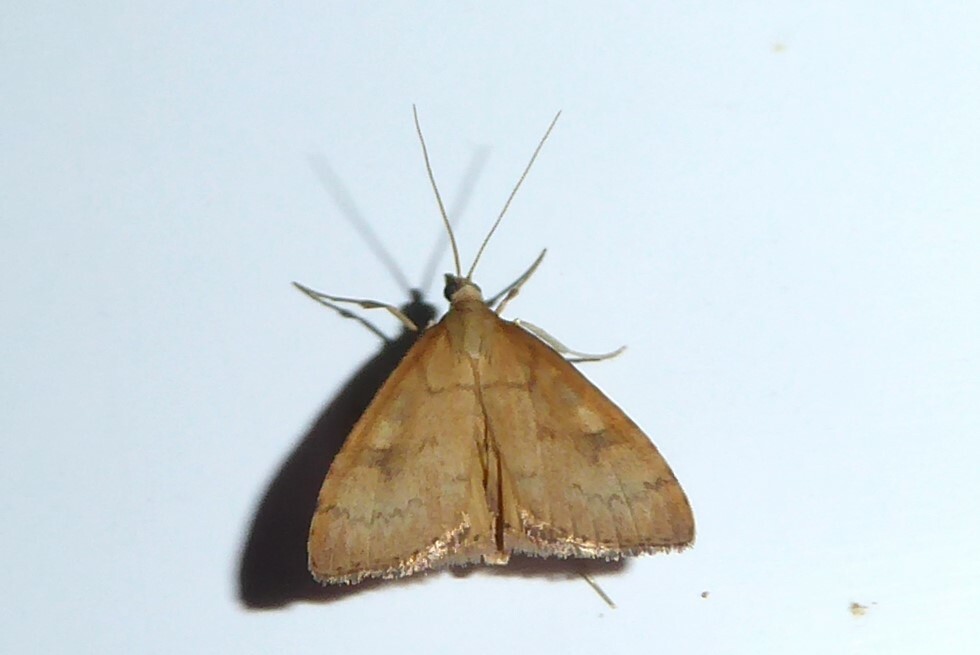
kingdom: Animalia
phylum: Arthropoda
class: Insecta
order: Lepidoptera
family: Crambidae
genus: Udea
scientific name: Udea Mnesictena flavidalis
